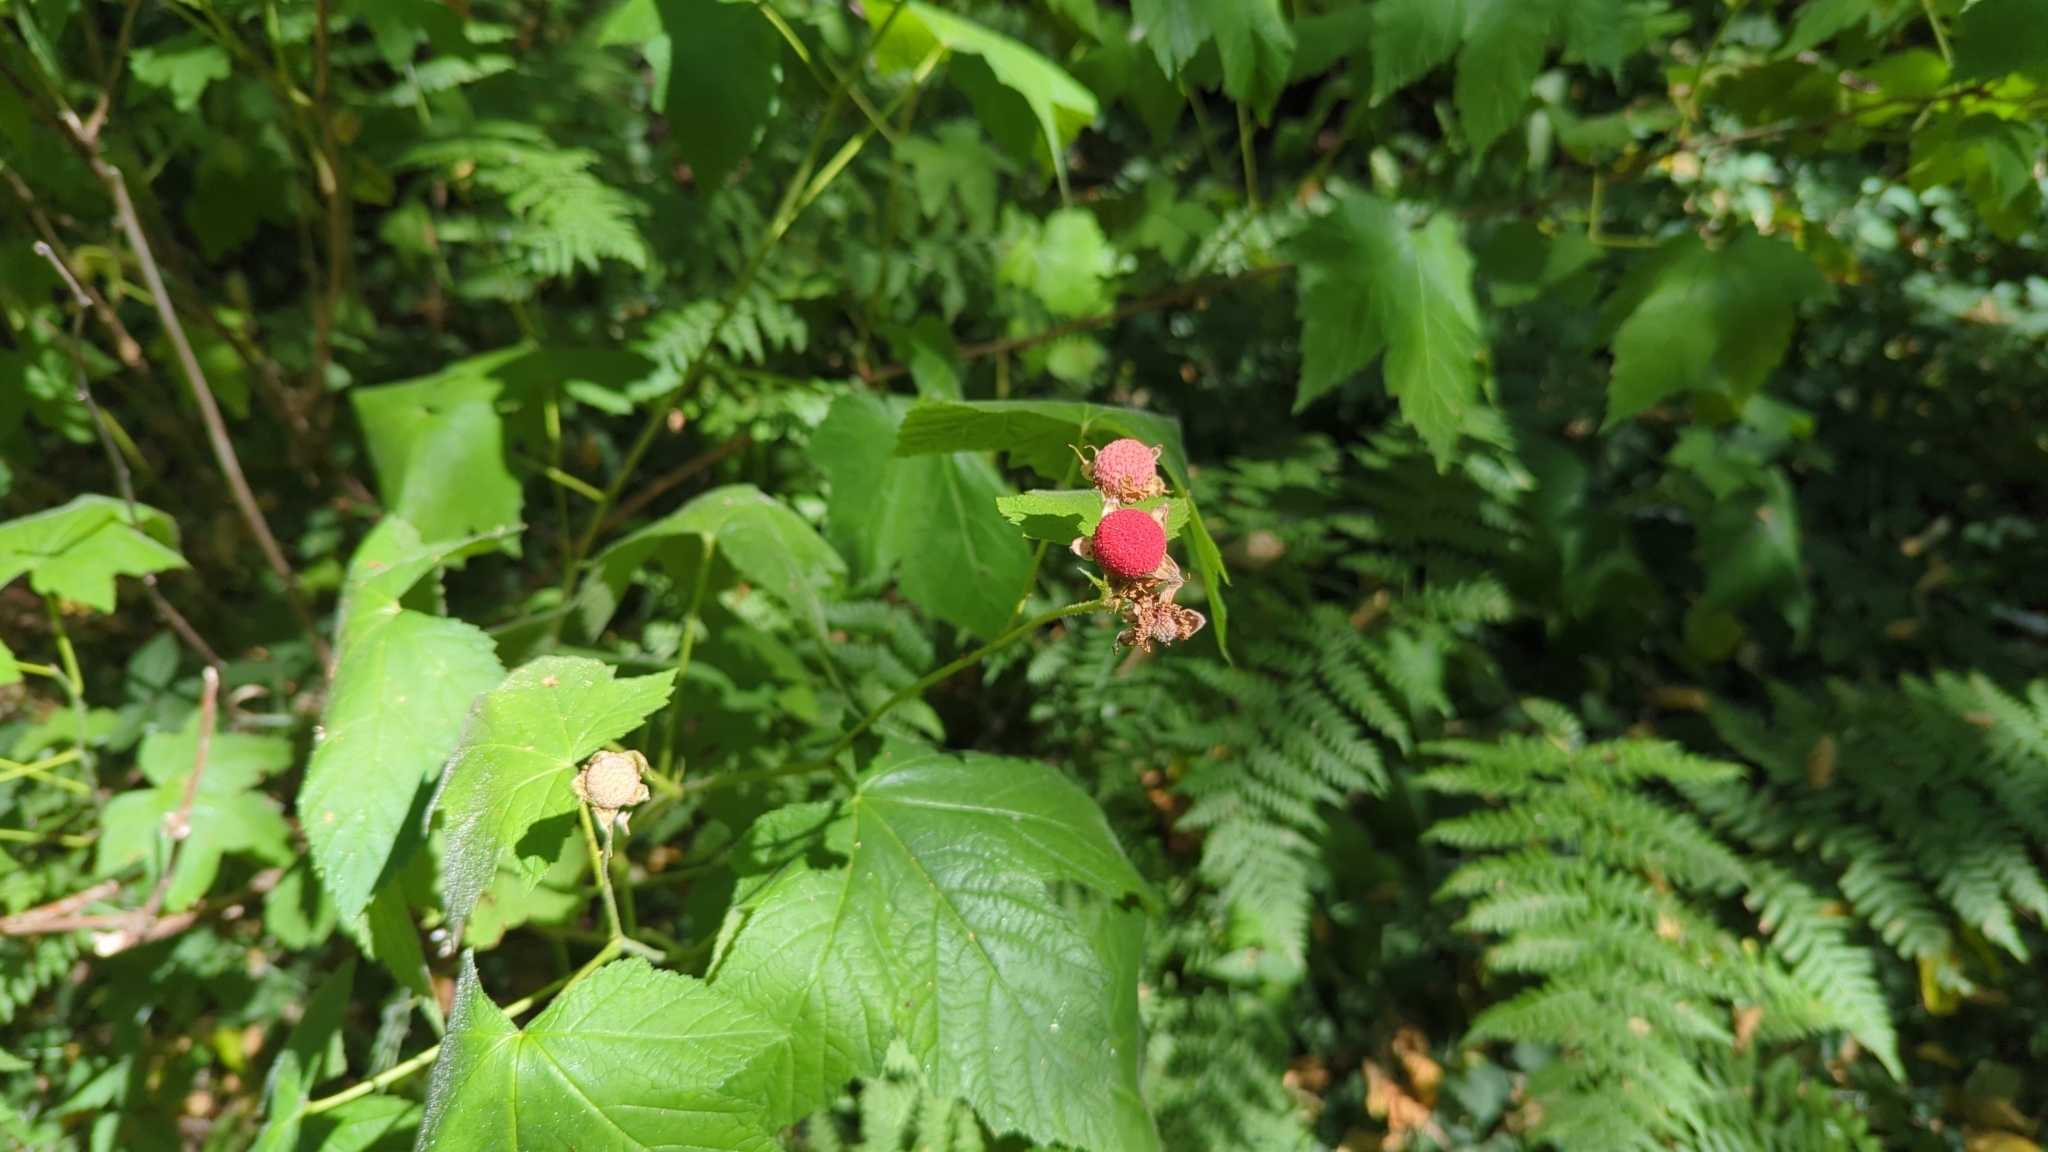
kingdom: Plantae
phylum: Tracheophyta
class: Magnoliopsida
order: Rosales
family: Rosaceae
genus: Rubus
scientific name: Rubus parviflorus
